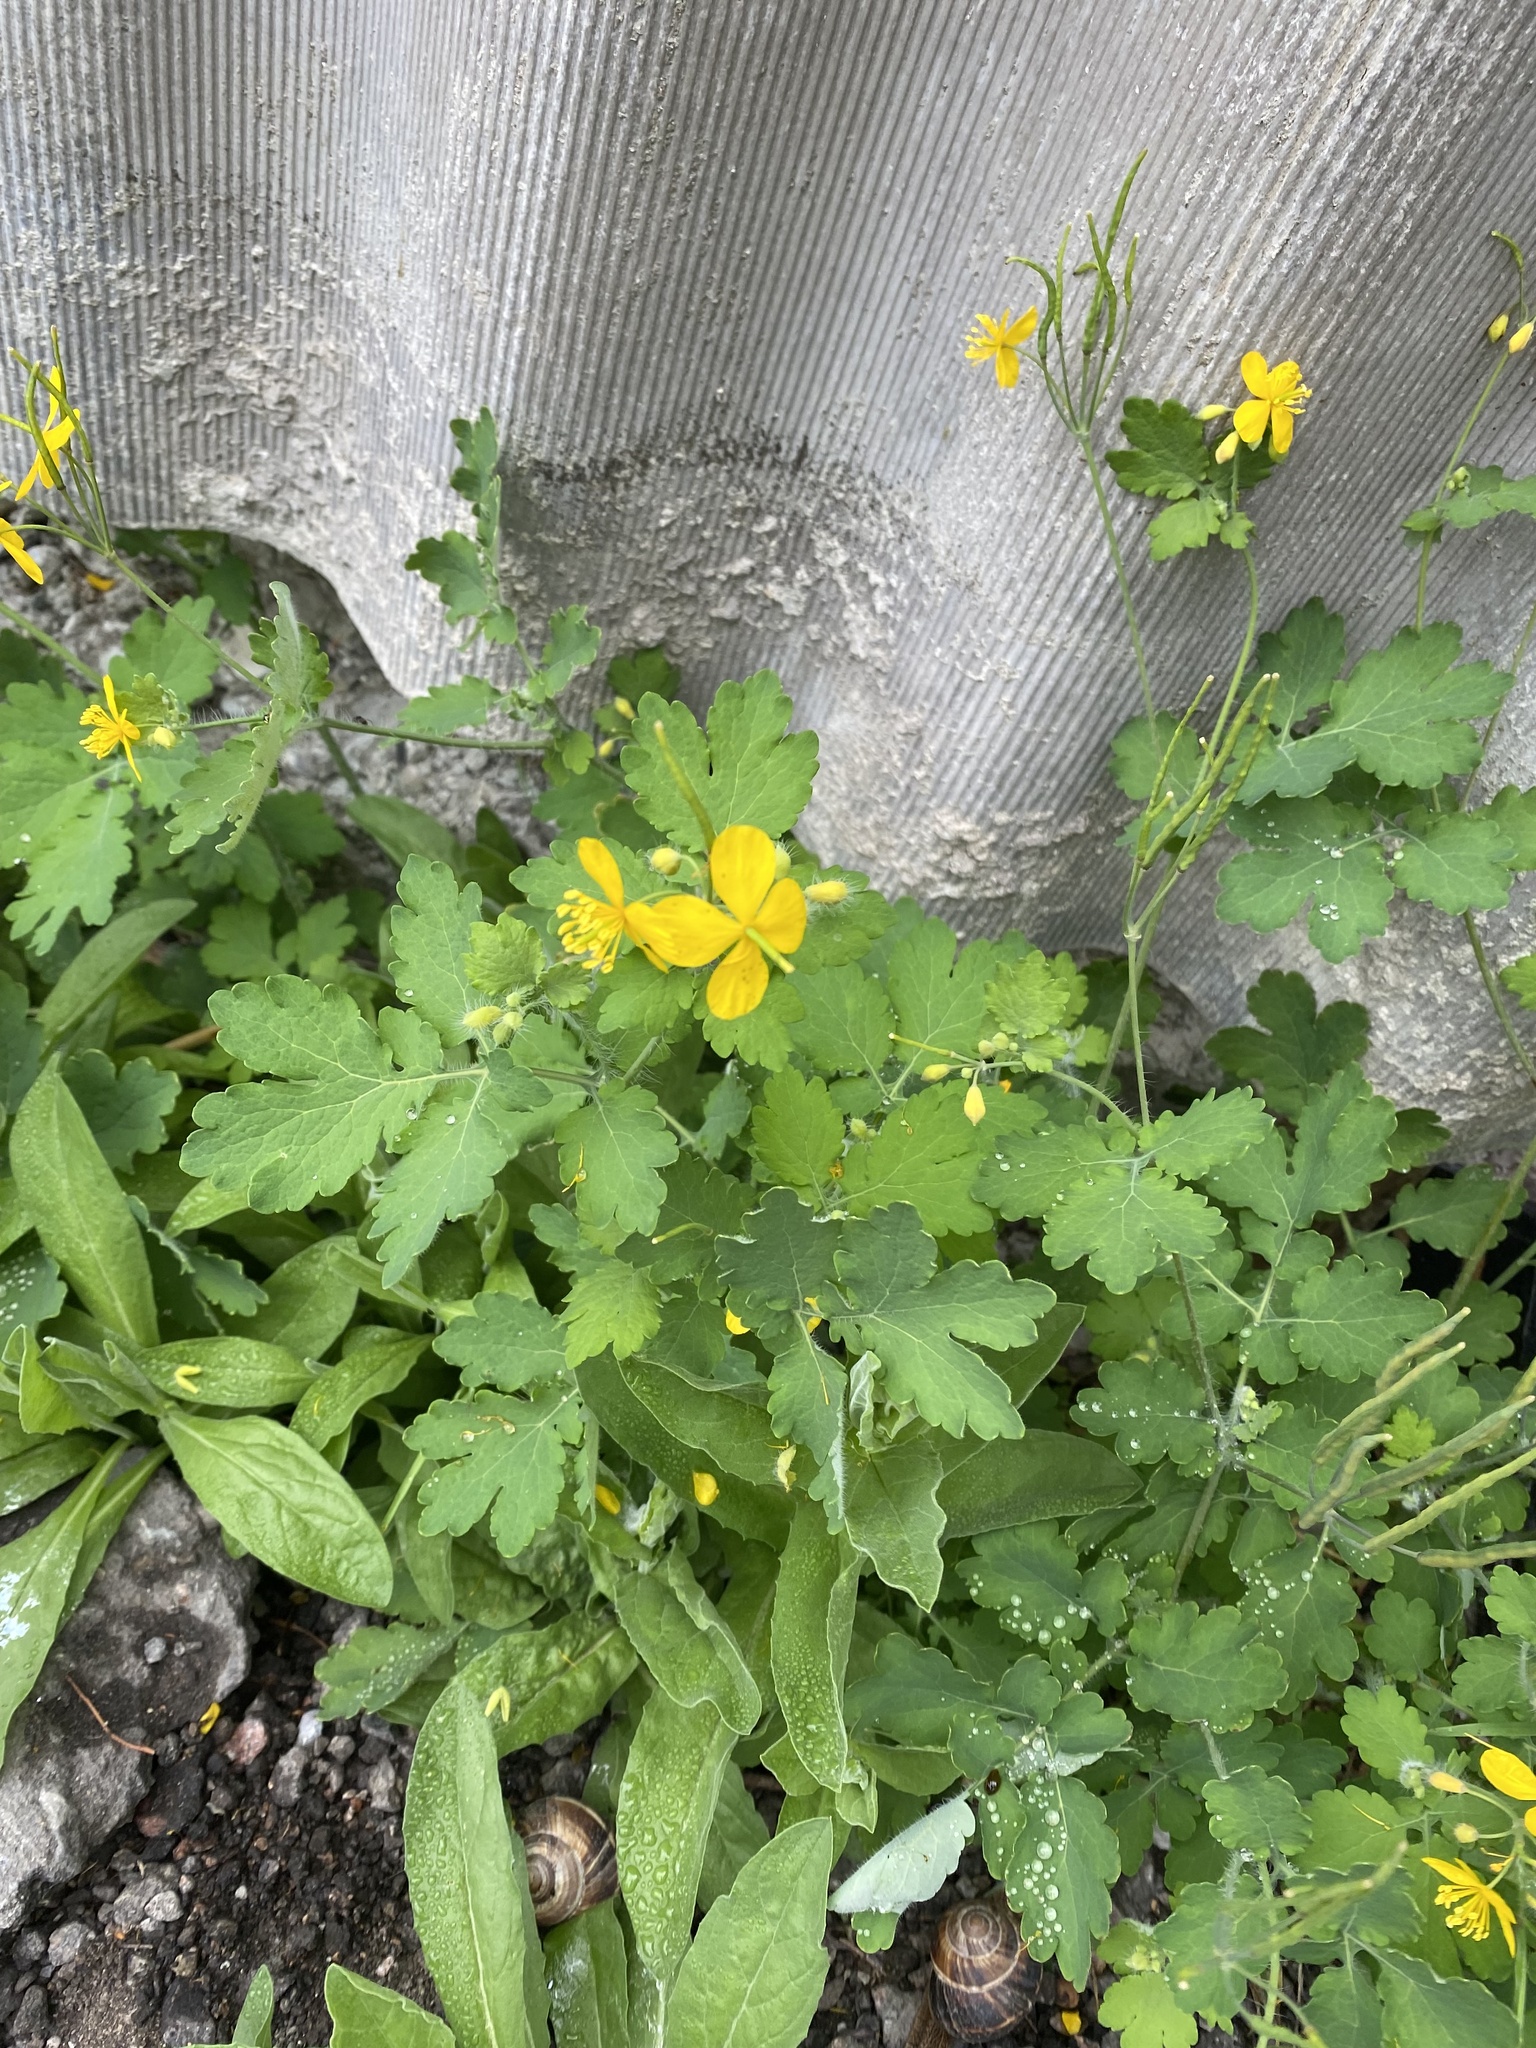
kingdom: Plantae
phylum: Tracheophyta
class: Magnoliopsida
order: Ranunculales
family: Papaveraceae
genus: Chelidonium
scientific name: Chelidonium majus
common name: Greater celandine
